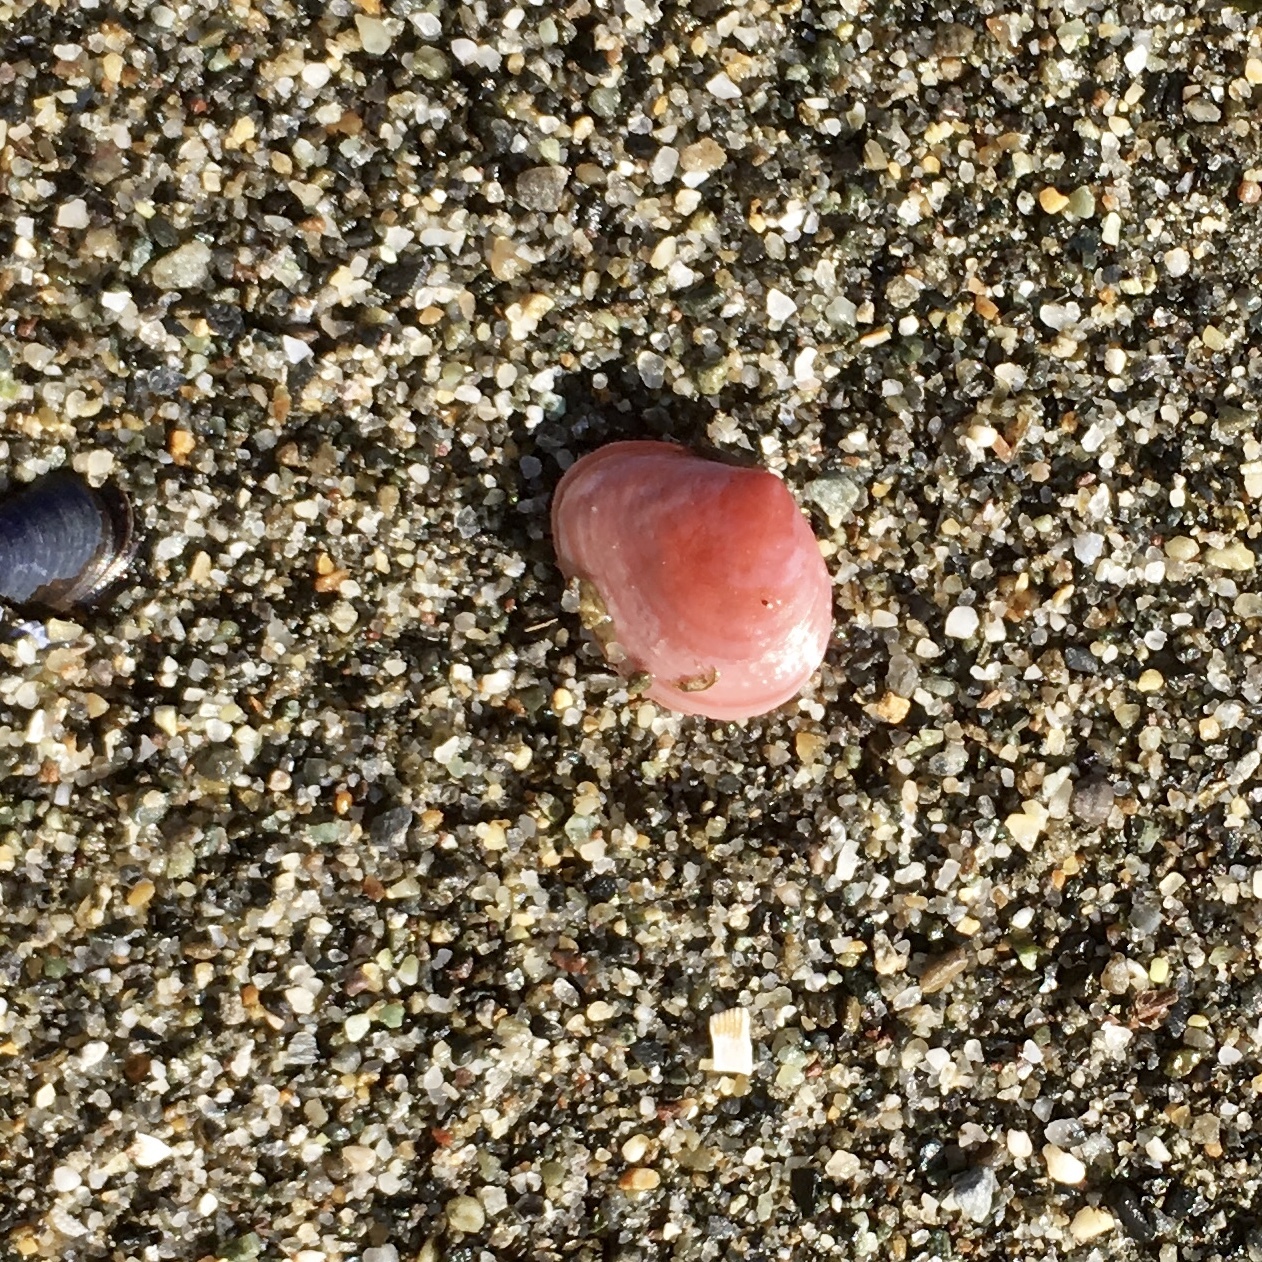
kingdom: Animalia
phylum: Mollusca
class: Bivalvia
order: Cardiida
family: Tellinidae
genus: Macoma
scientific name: Macoma balthica
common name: Baltic tellin
